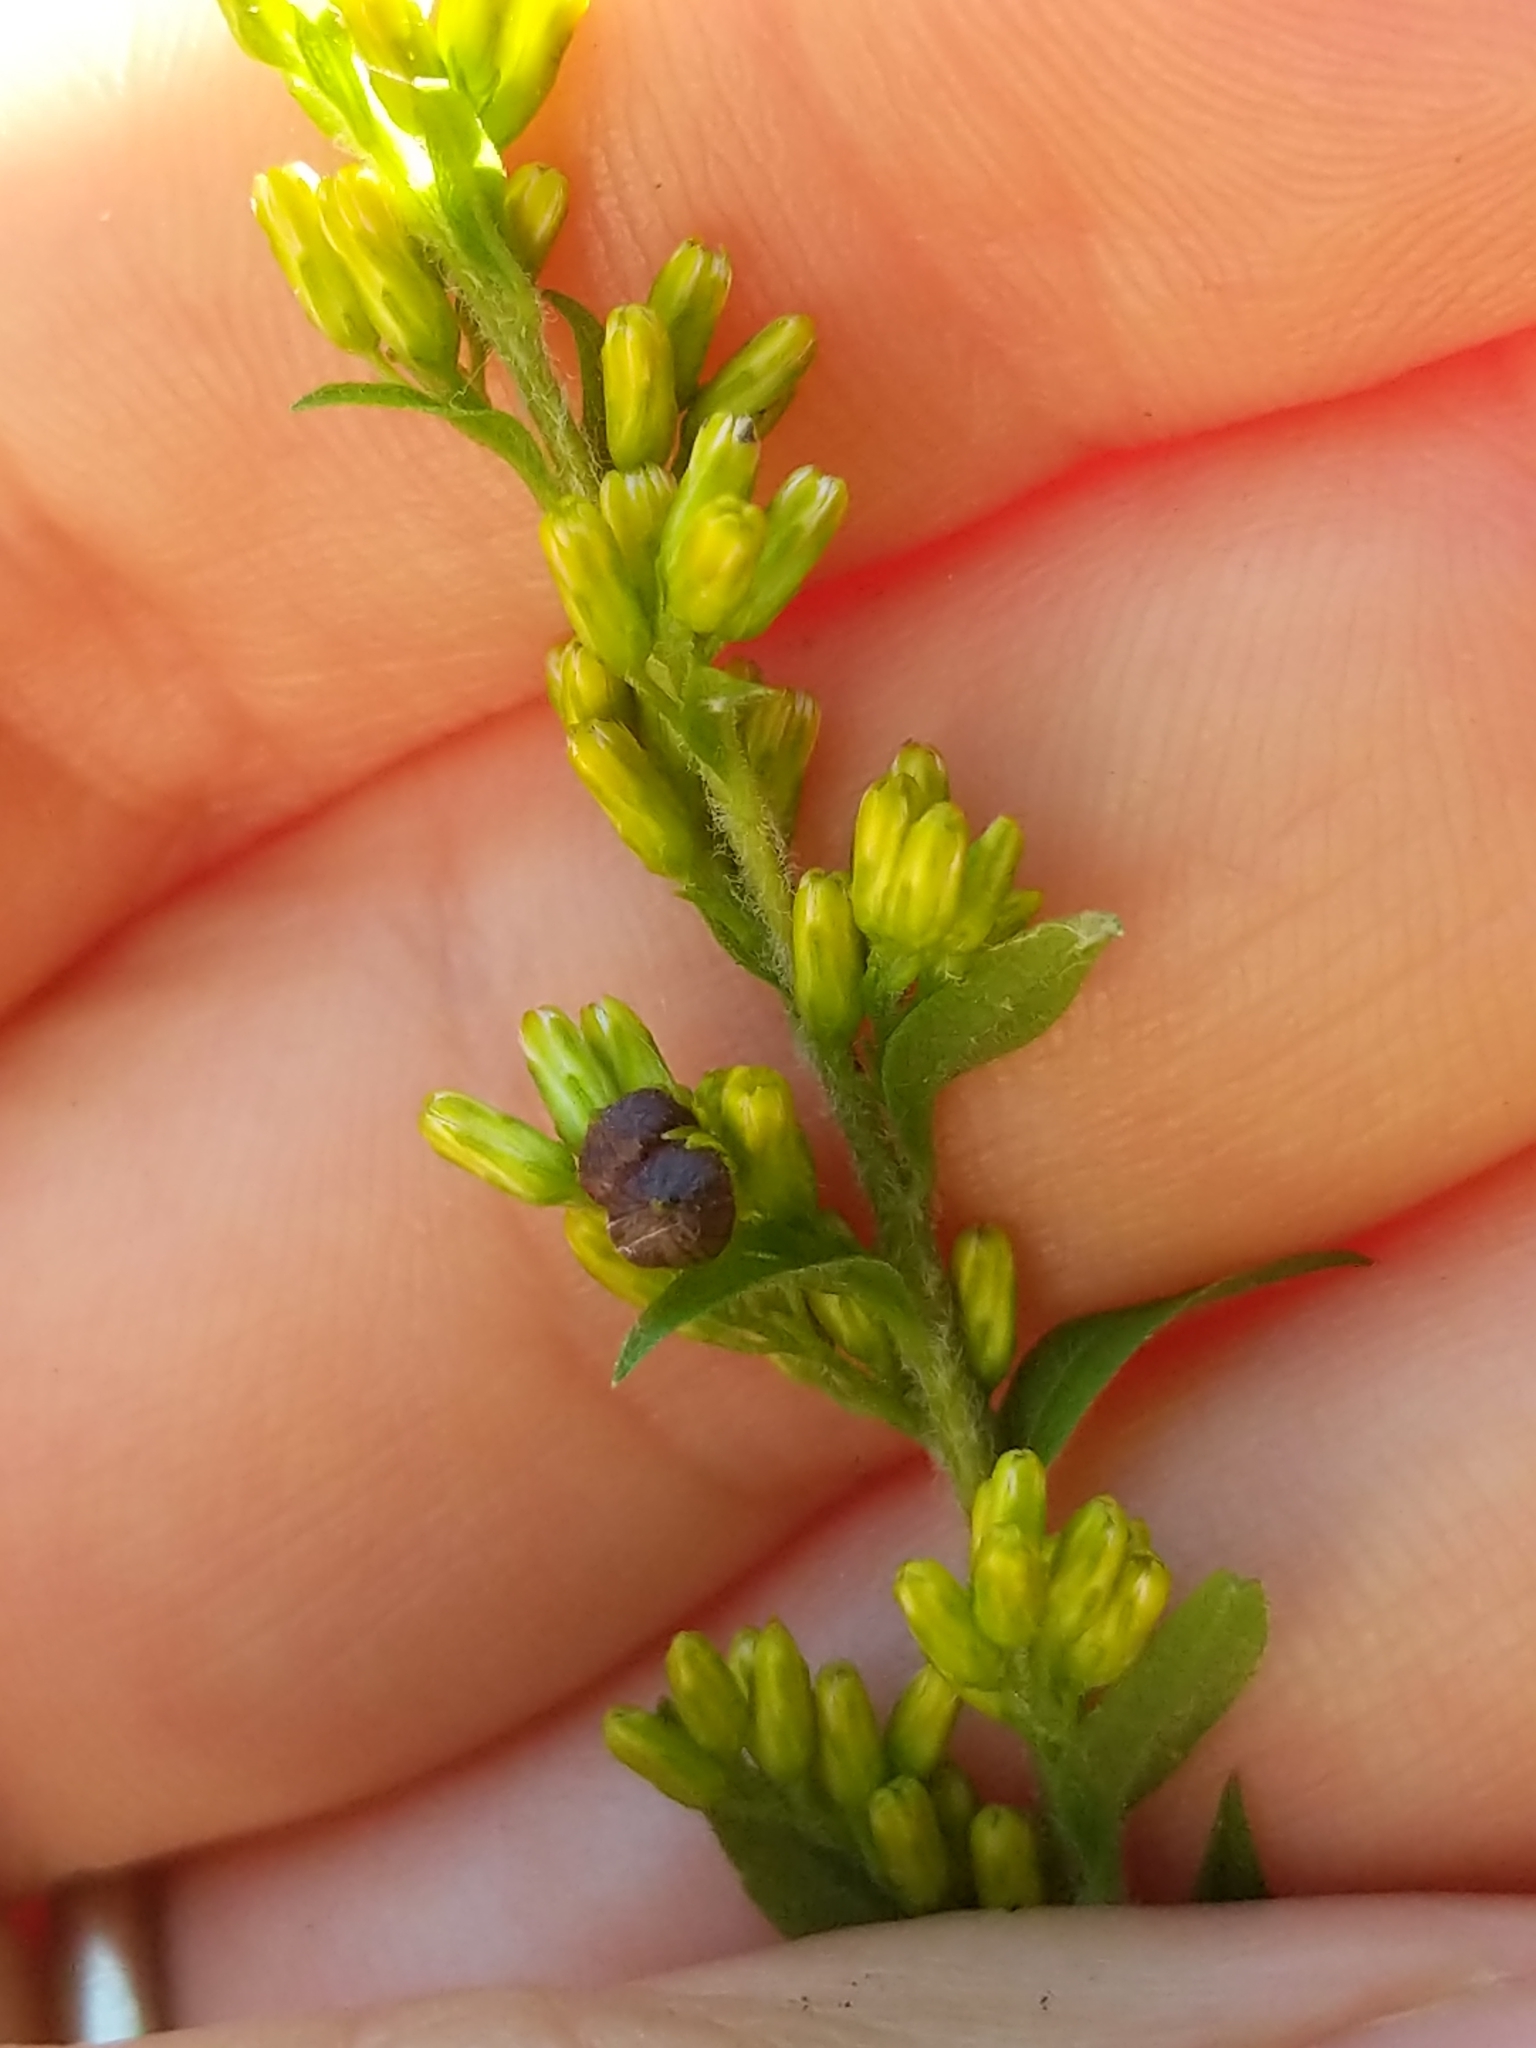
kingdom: Animalia
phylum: Arthropoda
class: Insecta
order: Diptera
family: Cecidomyiidae
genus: Schizomyia
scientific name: Schizomyia racemicola
